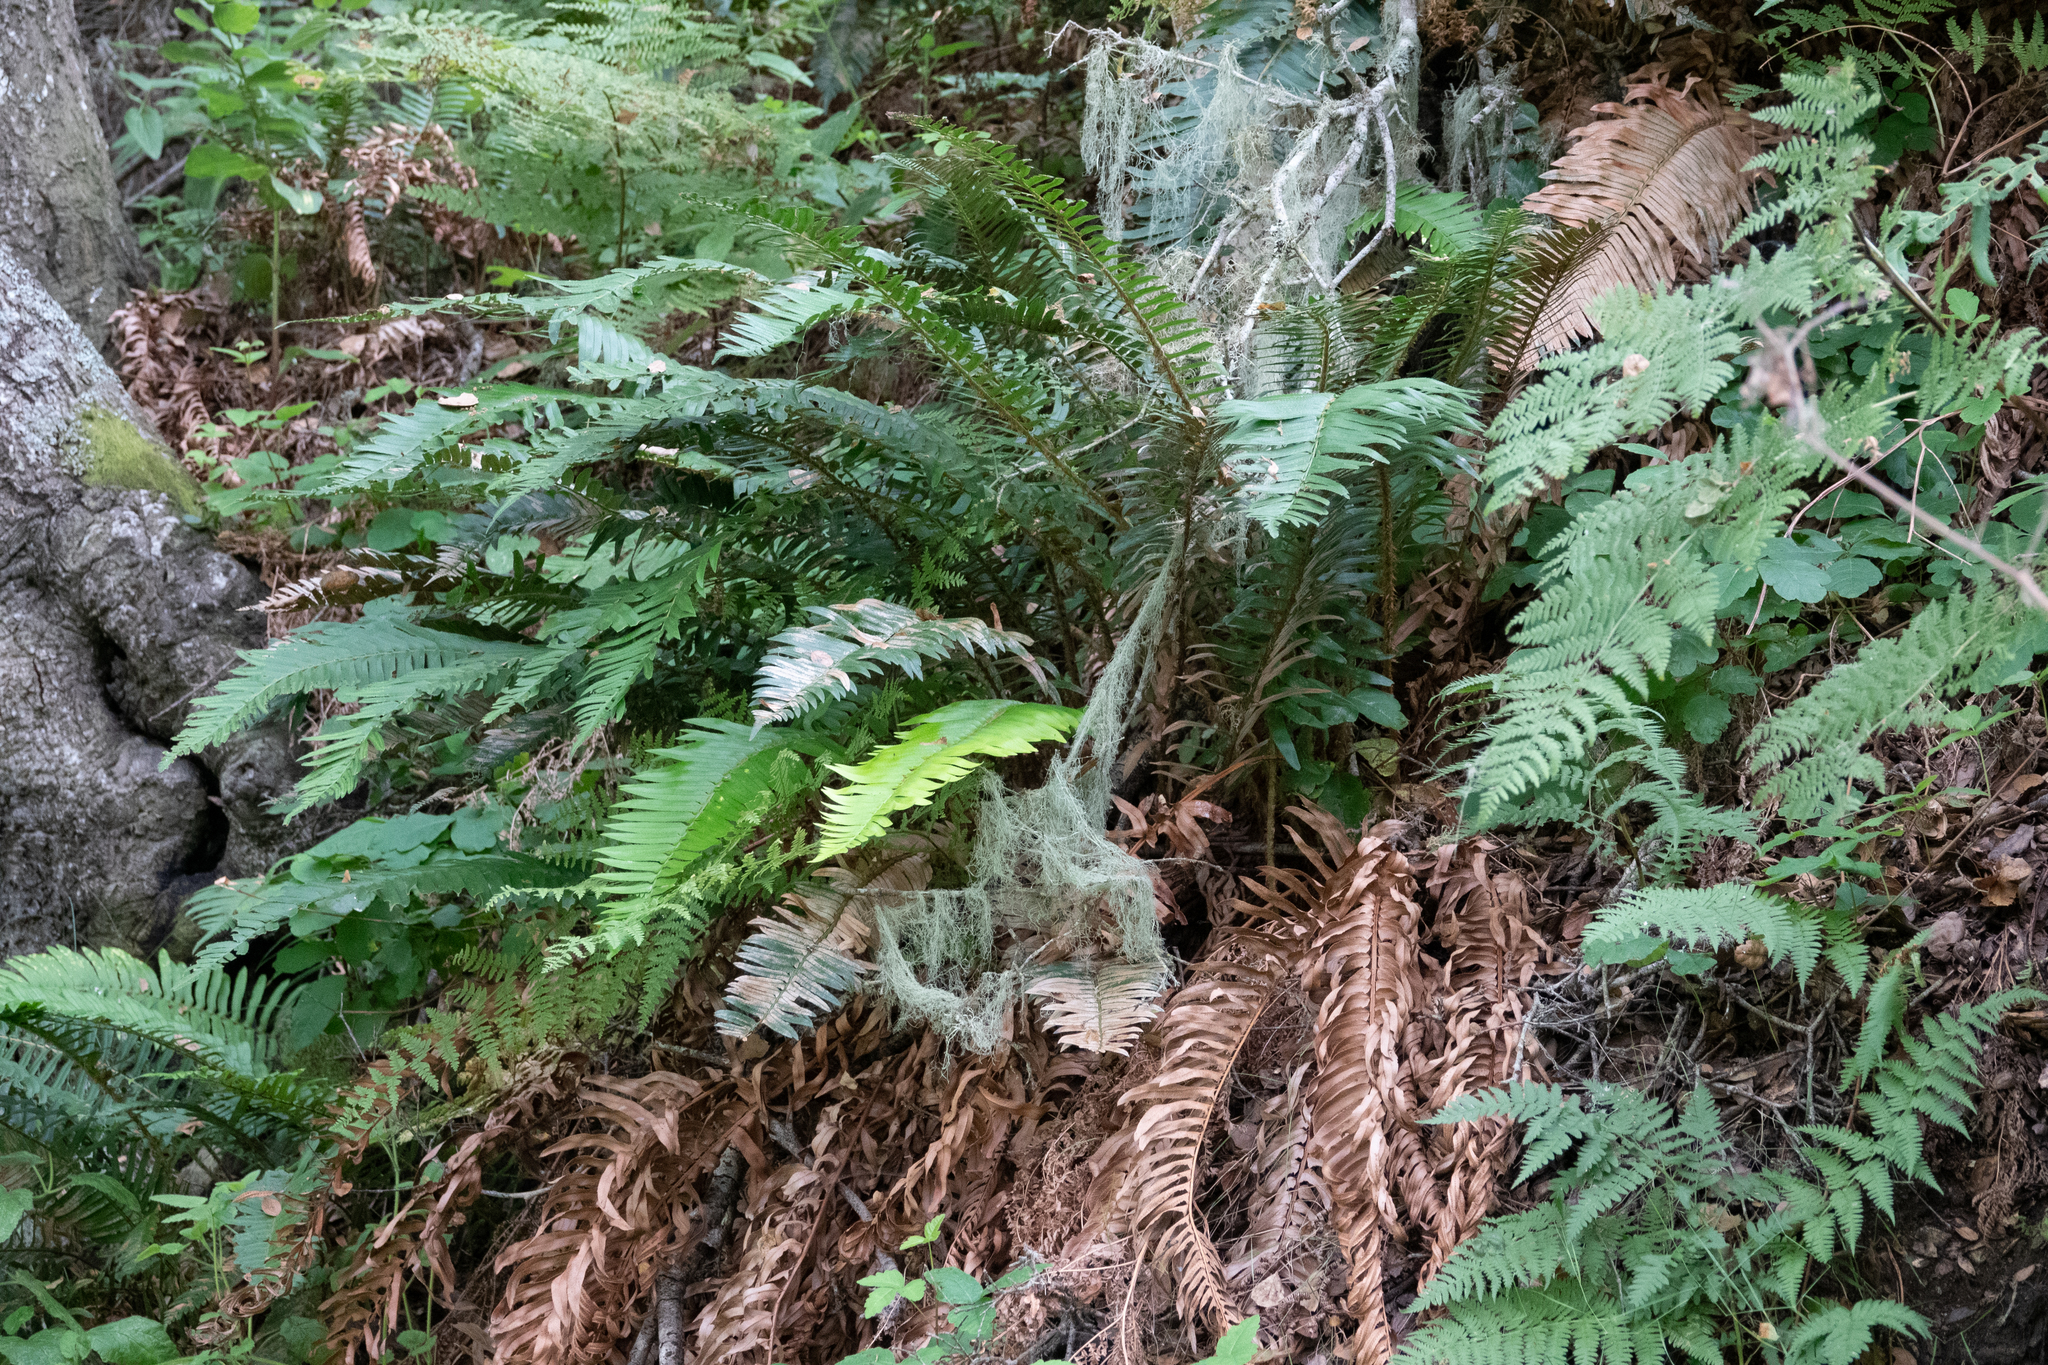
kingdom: Plantae
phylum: Tracheophyta
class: Polypodiopsida
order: Polypodiales
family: Dryopteridaceae
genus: Polystichum
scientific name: Polystichum munitum
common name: Western sword-fern
